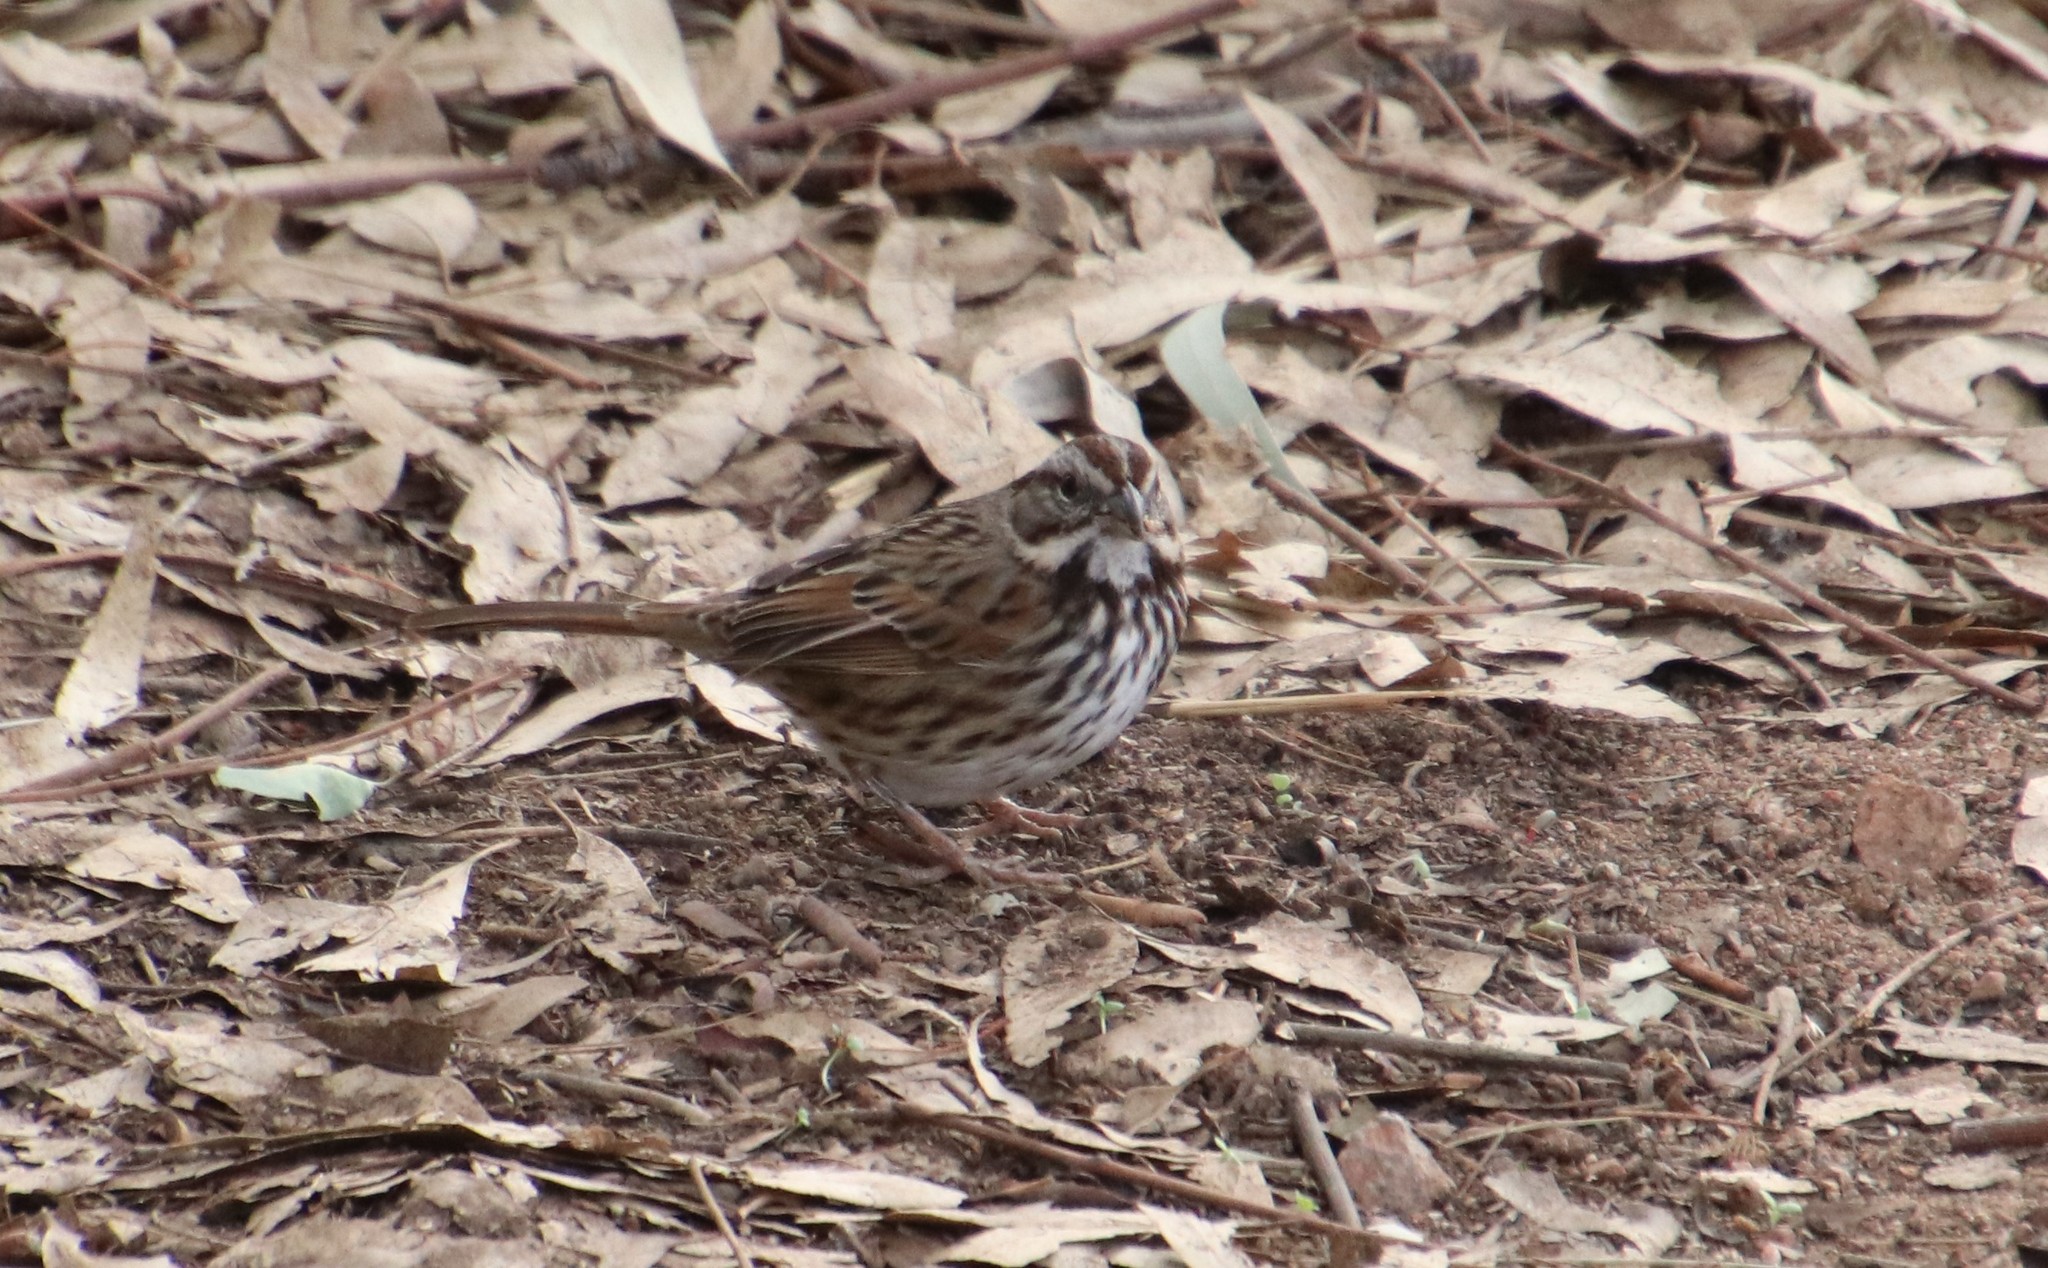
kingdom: Animalia
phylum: Chordata
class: Aves
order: Passeriformes
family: Passerellidae
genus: Melospiza
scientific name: Melospiza melodia
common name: Song sparrow
